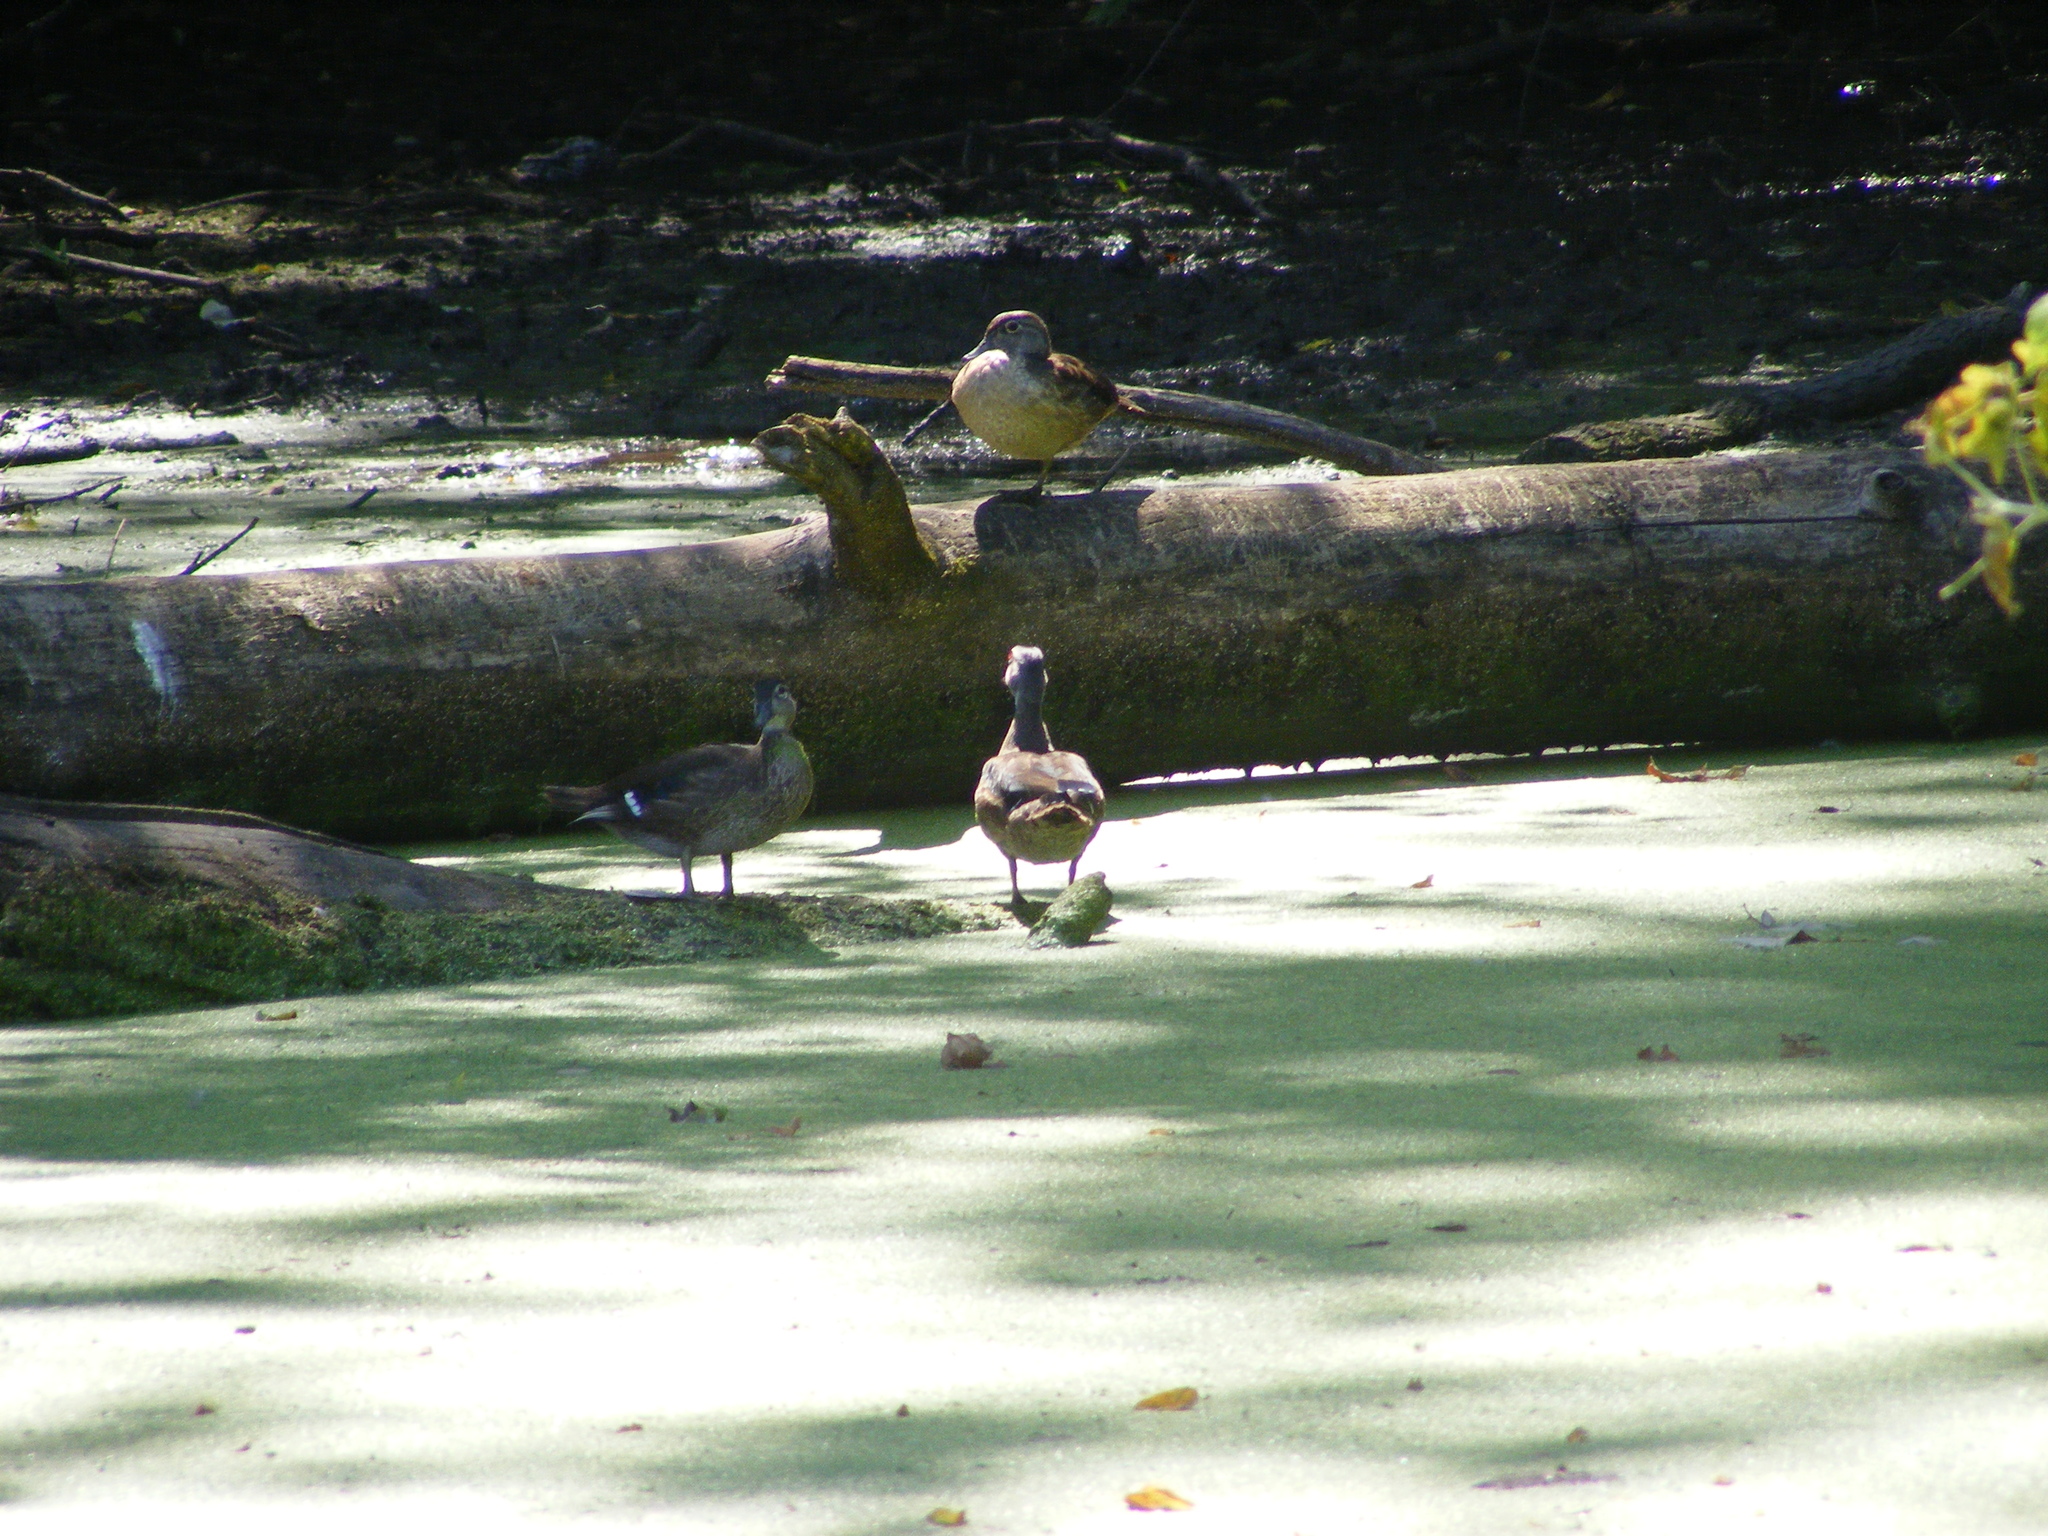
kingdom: Animalia
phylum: Chordata
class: Aves
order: Anseriformes
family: Anatidae
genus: Aix
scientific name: Aix sponsa
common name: Wood duck
